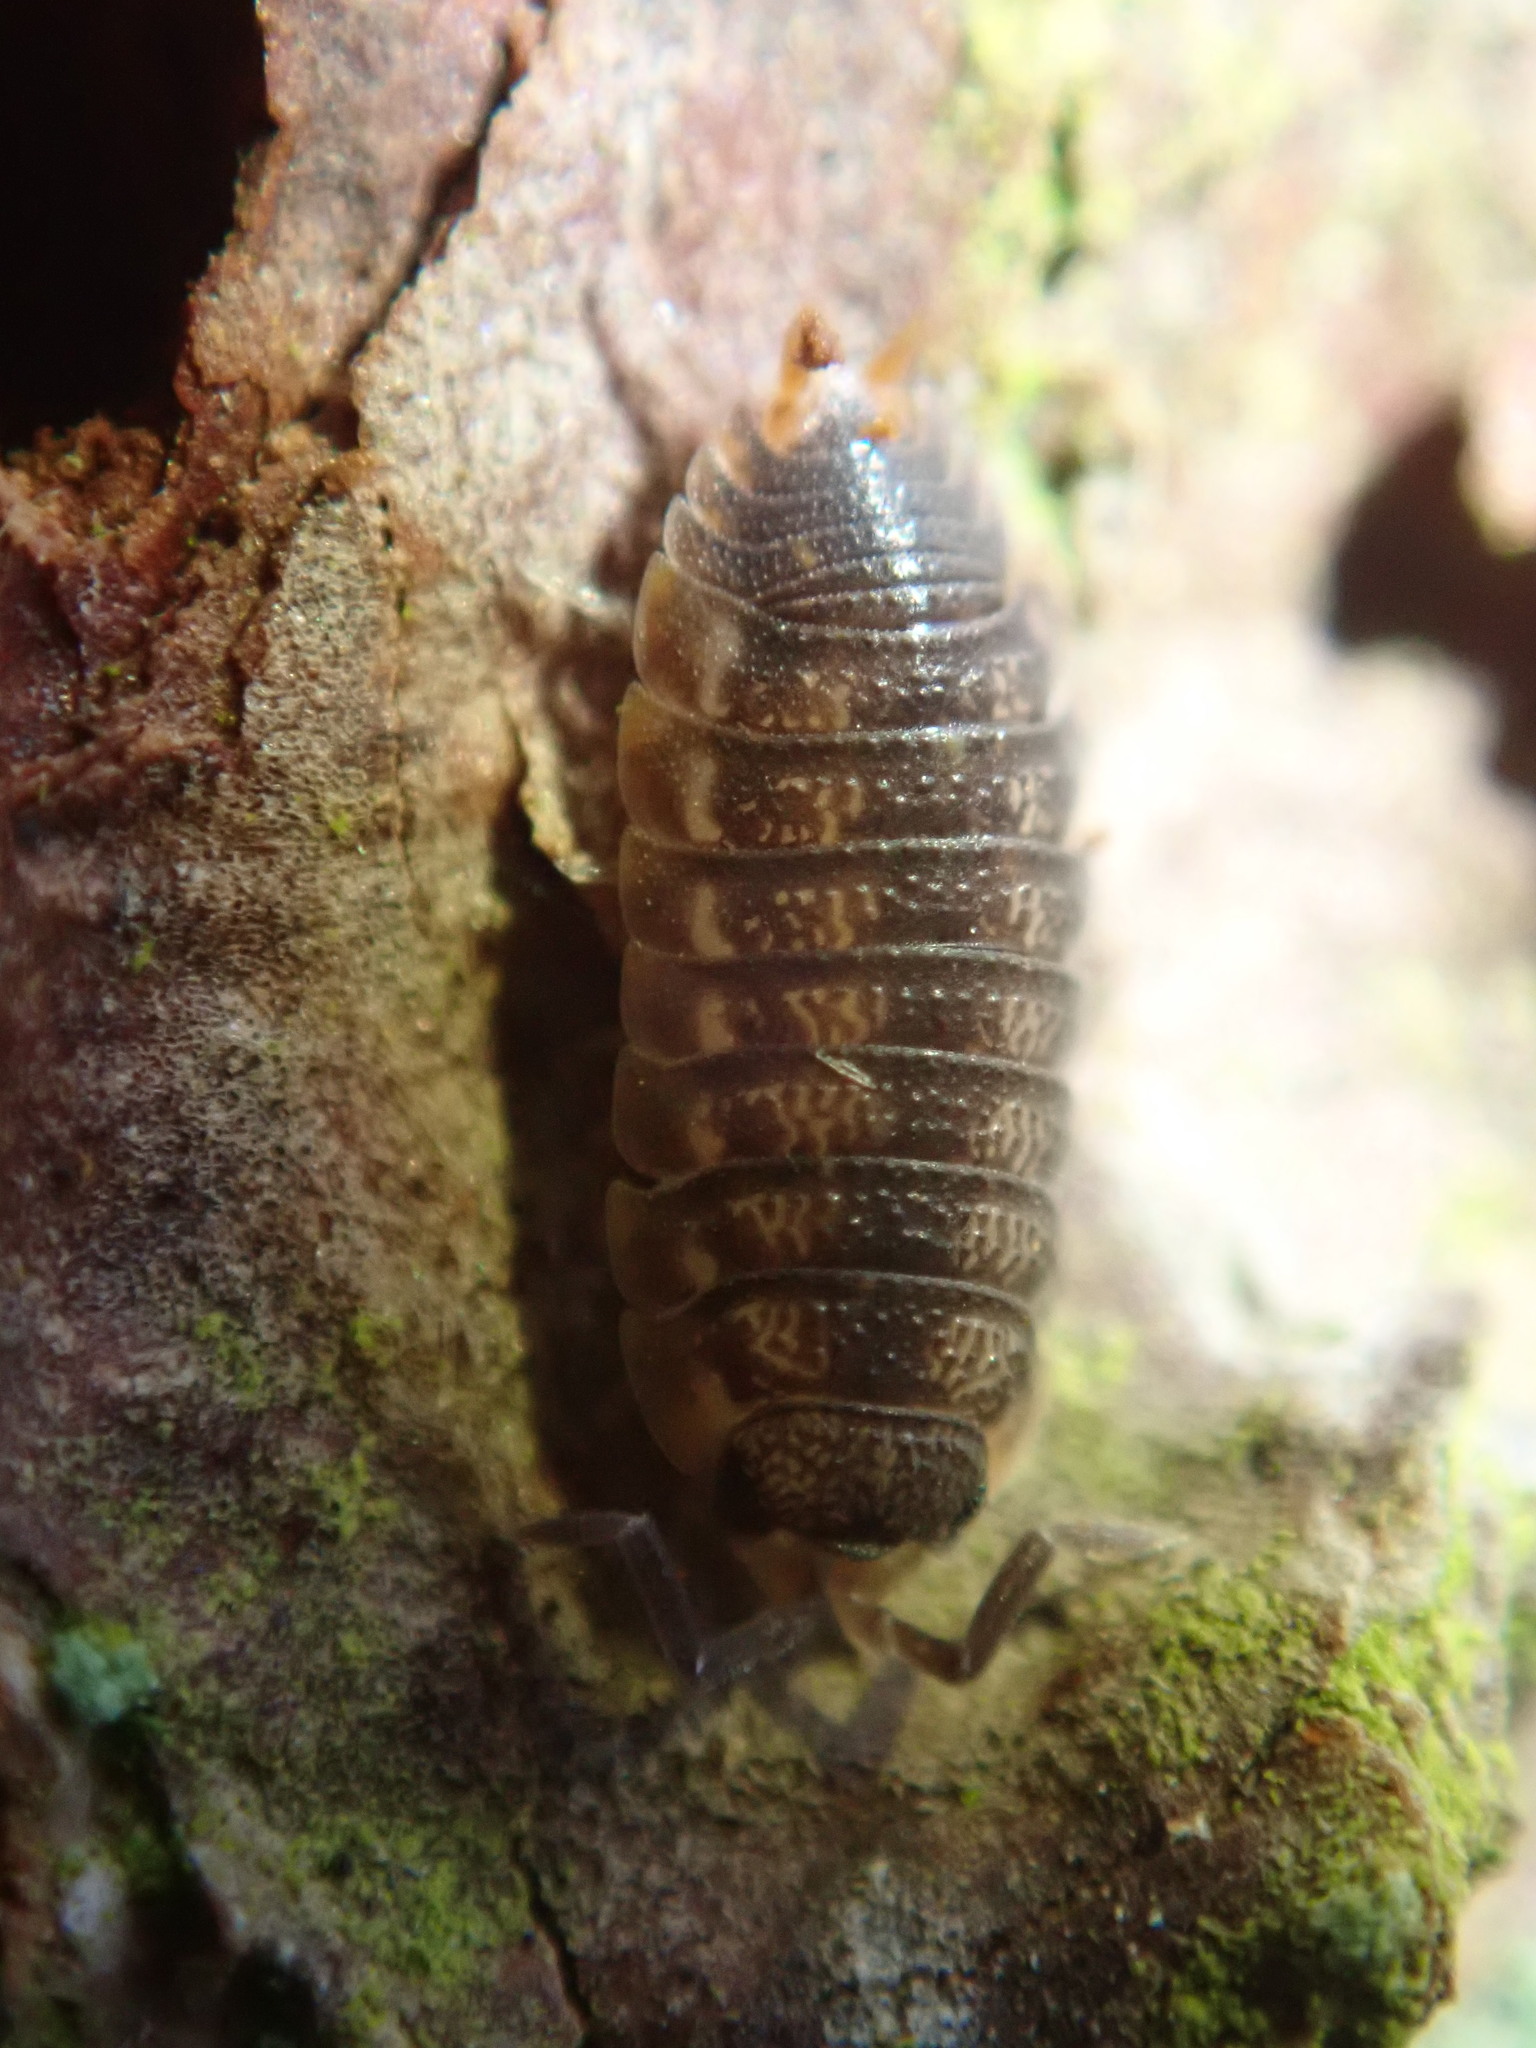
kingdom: Animalia
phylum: Arthropoda
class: Malacostraca
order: Isopoda
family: Porcellionidae
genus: Porcellio
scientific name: Porcellio scaber
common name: Common rough woodlouse
